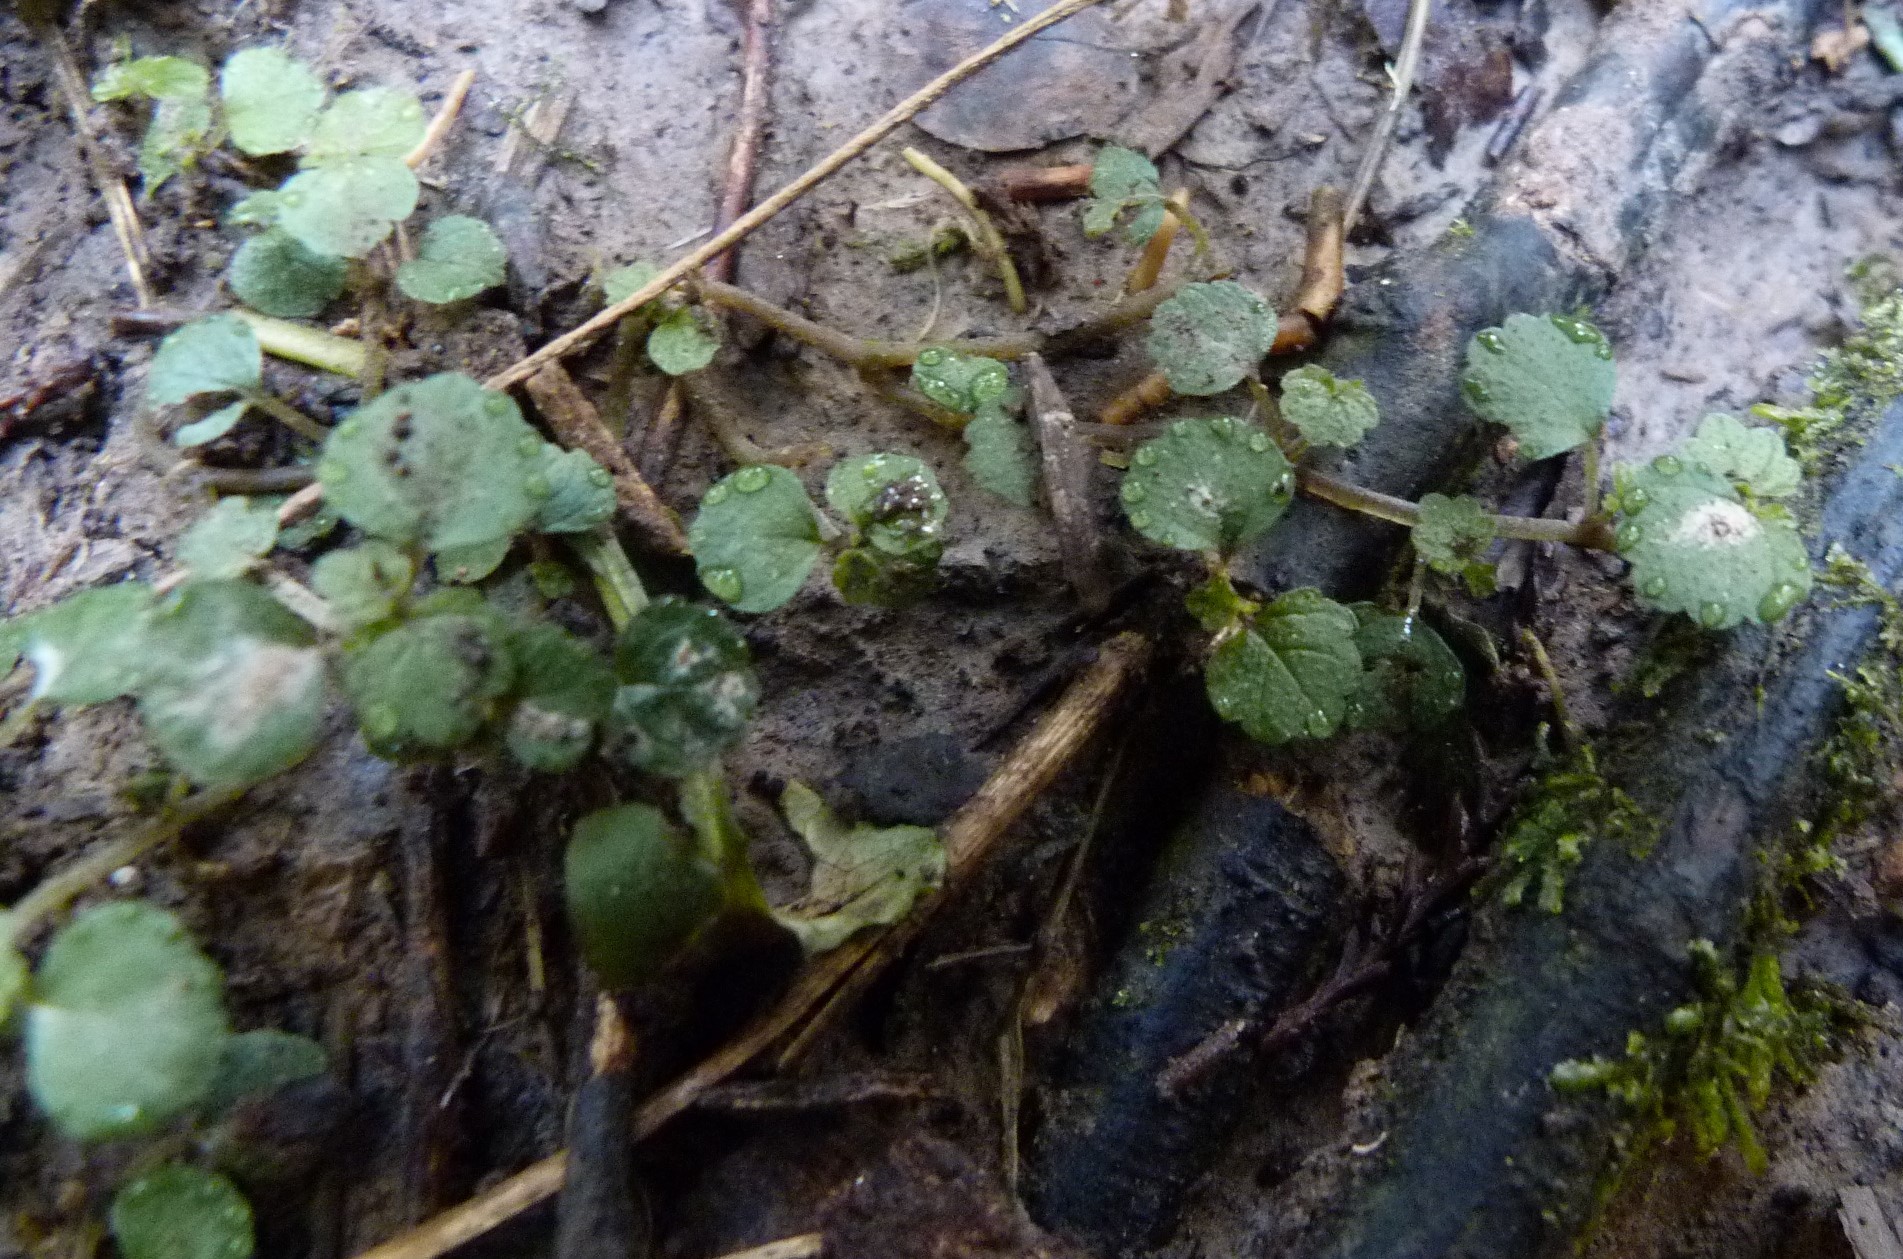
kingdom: Plantae
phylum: Tracheophyta
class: Magnoliopsida
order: Rosales
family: Urticaceae
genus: Australina
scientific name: Australina pusilla
